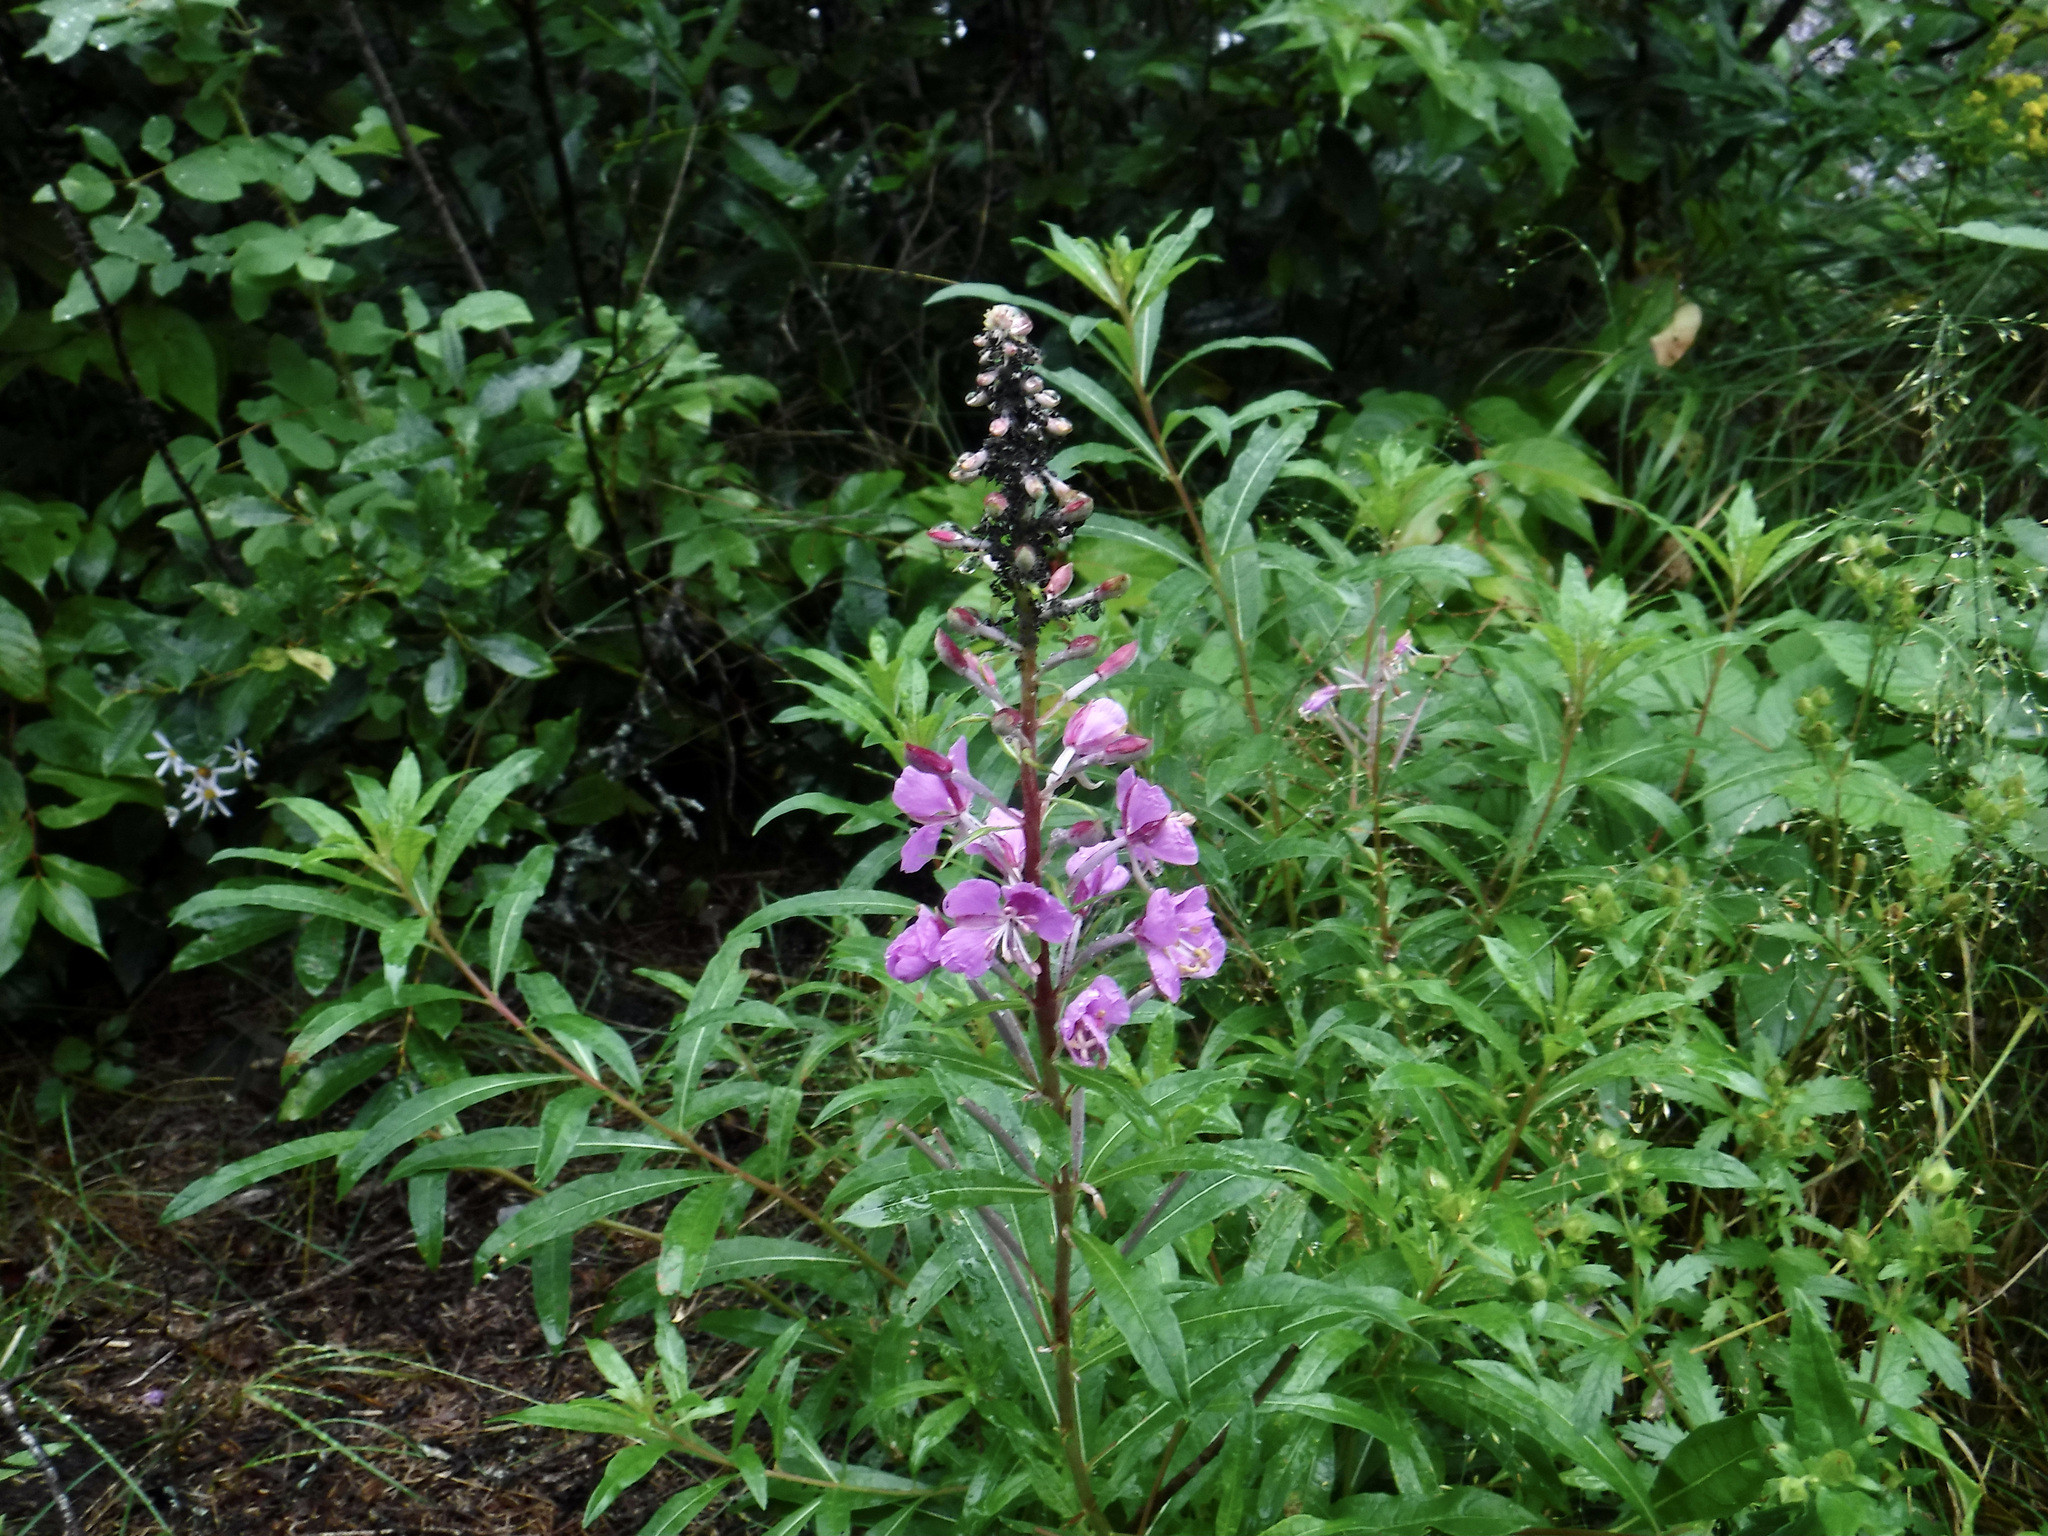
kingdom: Plantae
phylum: Tracheophyta
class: Magnoliopsida
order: Myrtales
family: Onagraceae
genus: Chamaenerion
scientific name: Chamaenerion angustifolium
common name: Fireweed
